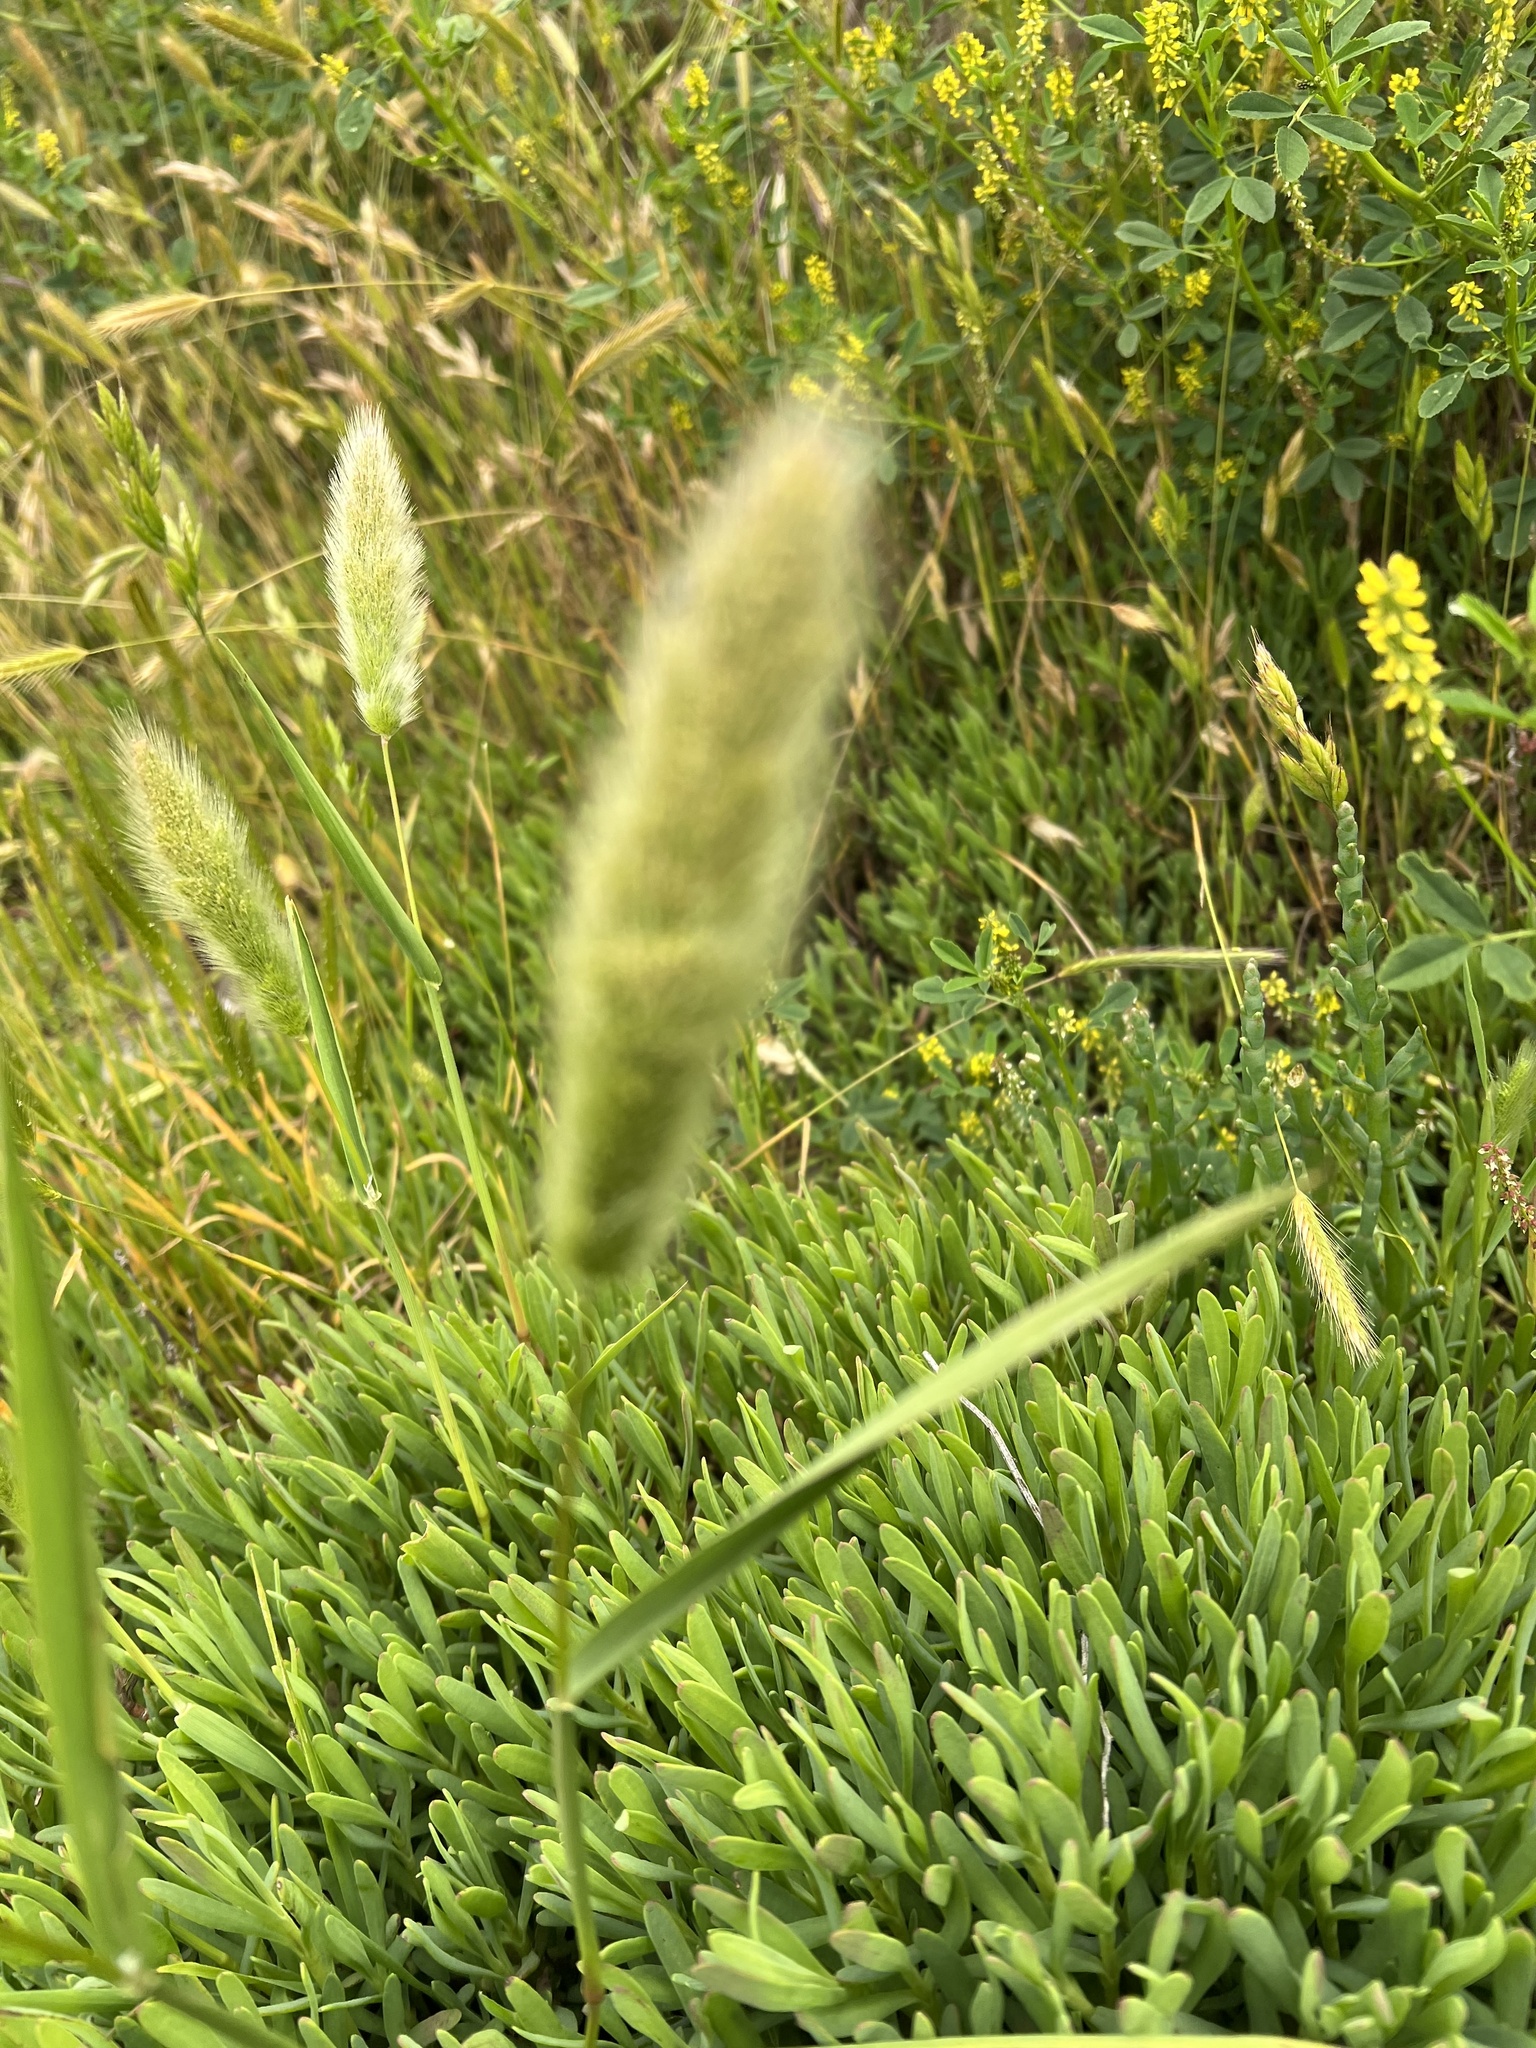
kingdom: Plantae
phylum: Tracheophyta
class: Liliopsida
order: Poales
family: Poaceae
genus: Polypogon
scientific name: Polypogon monspeliensis
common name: Annual rabbitsfoot grass
